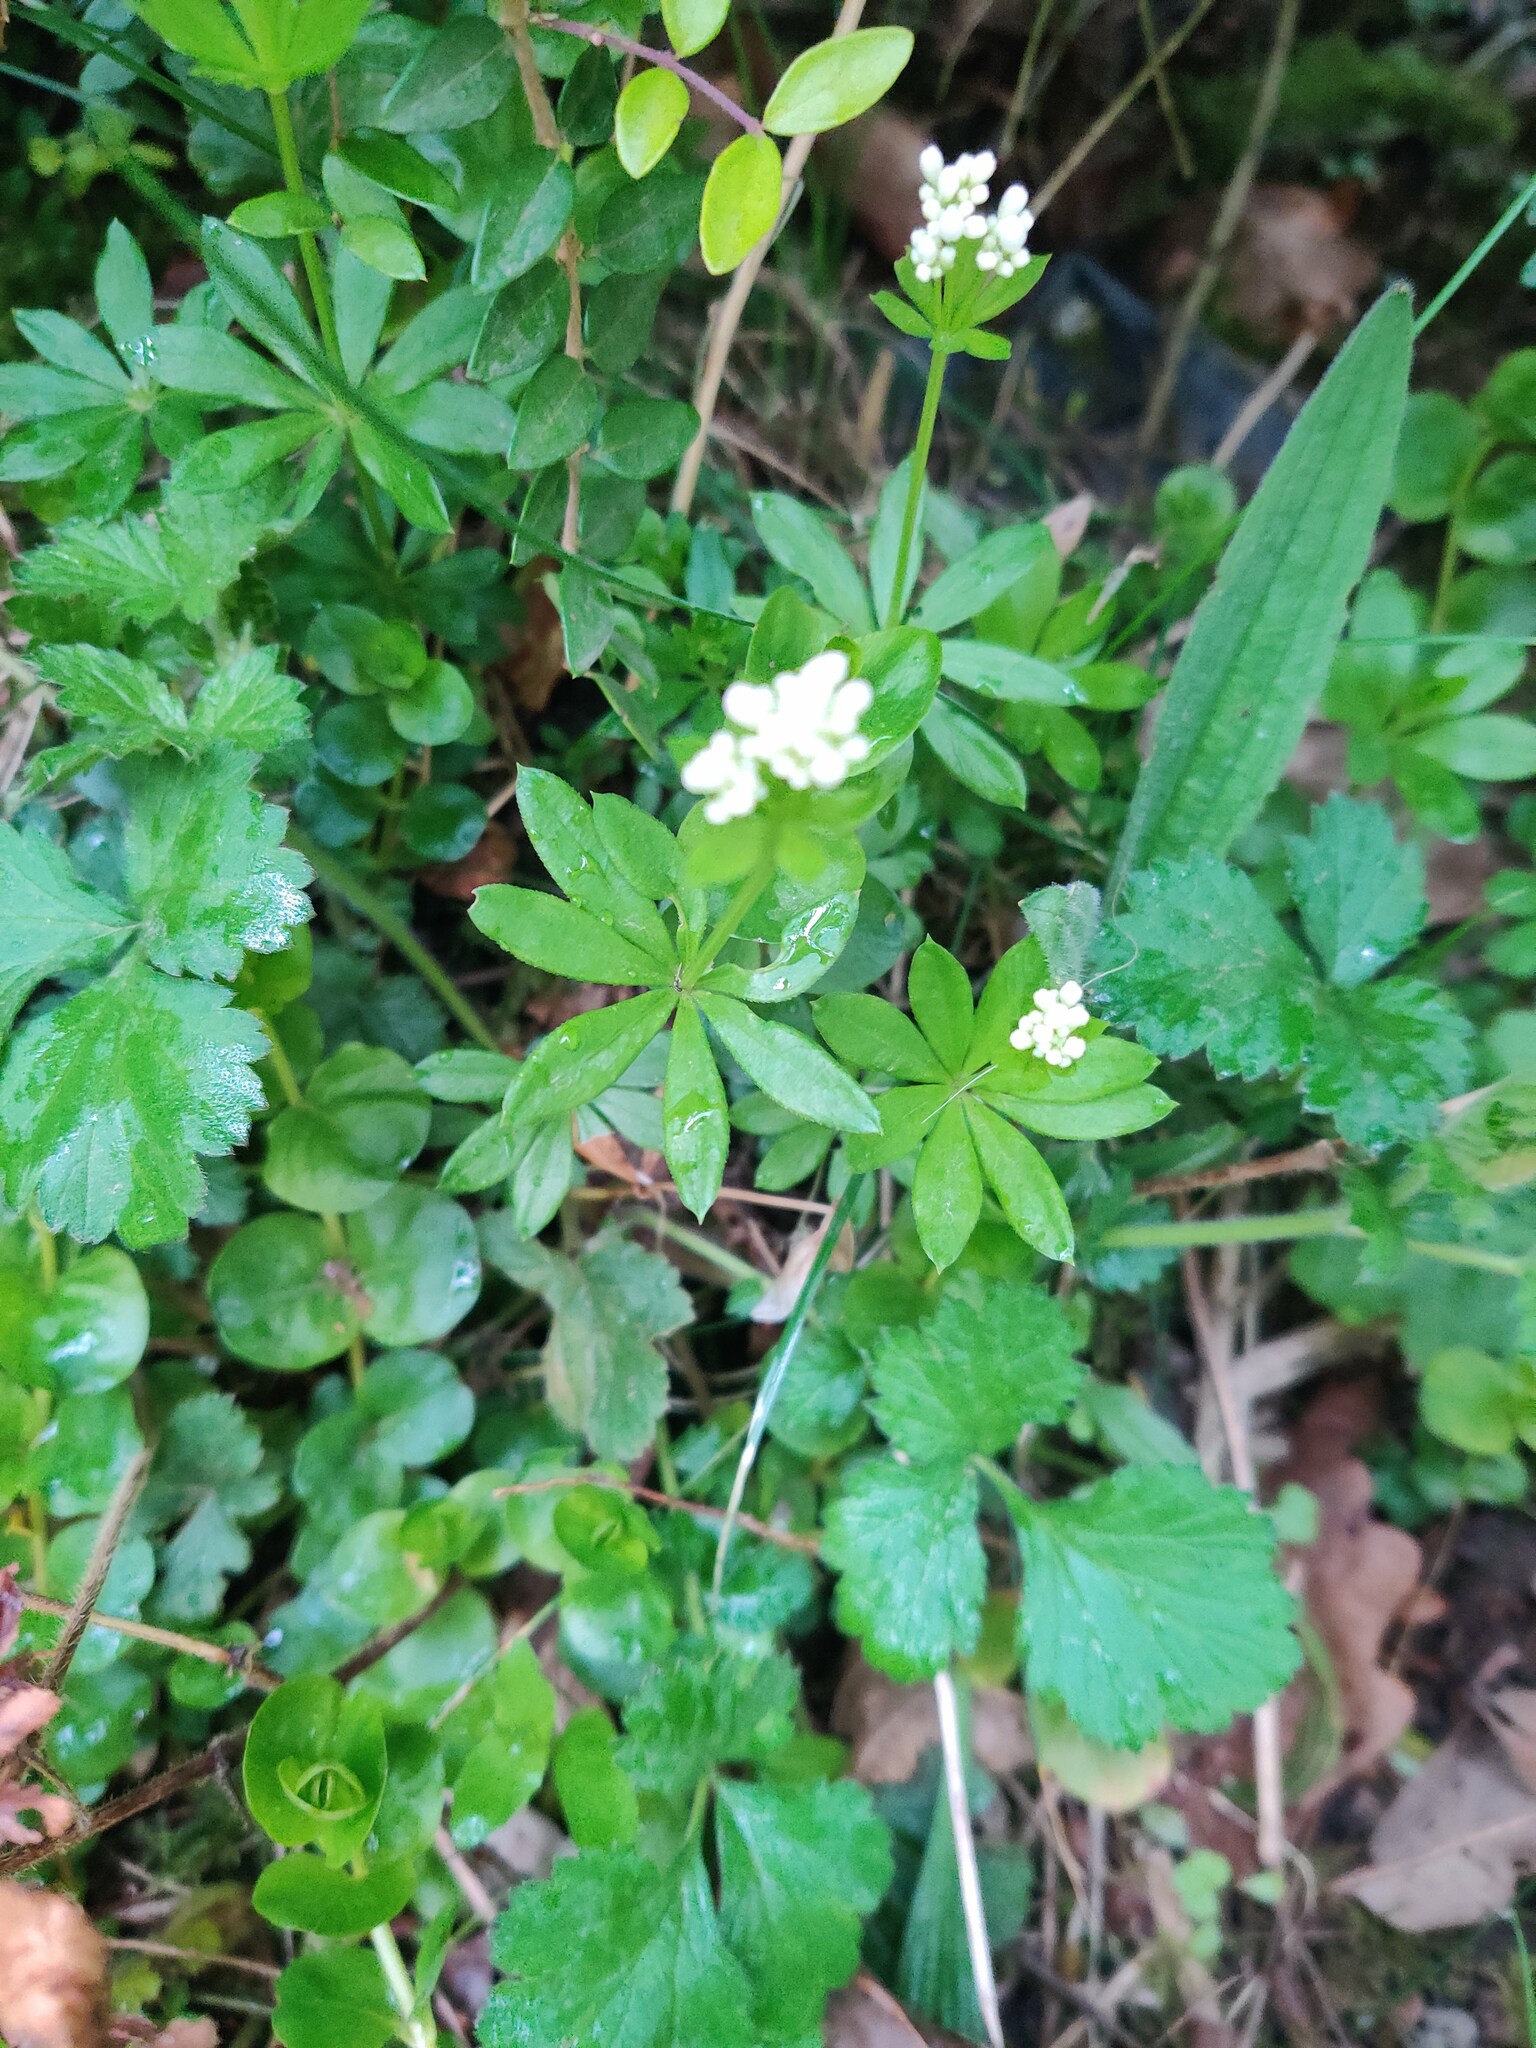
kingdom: Plantae
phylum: Tracheophyta
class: Magnoliopsida
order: Gentianales
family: Rubiaceae
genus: Galium
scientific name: Galium odoratum
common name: Sweet woodruff
